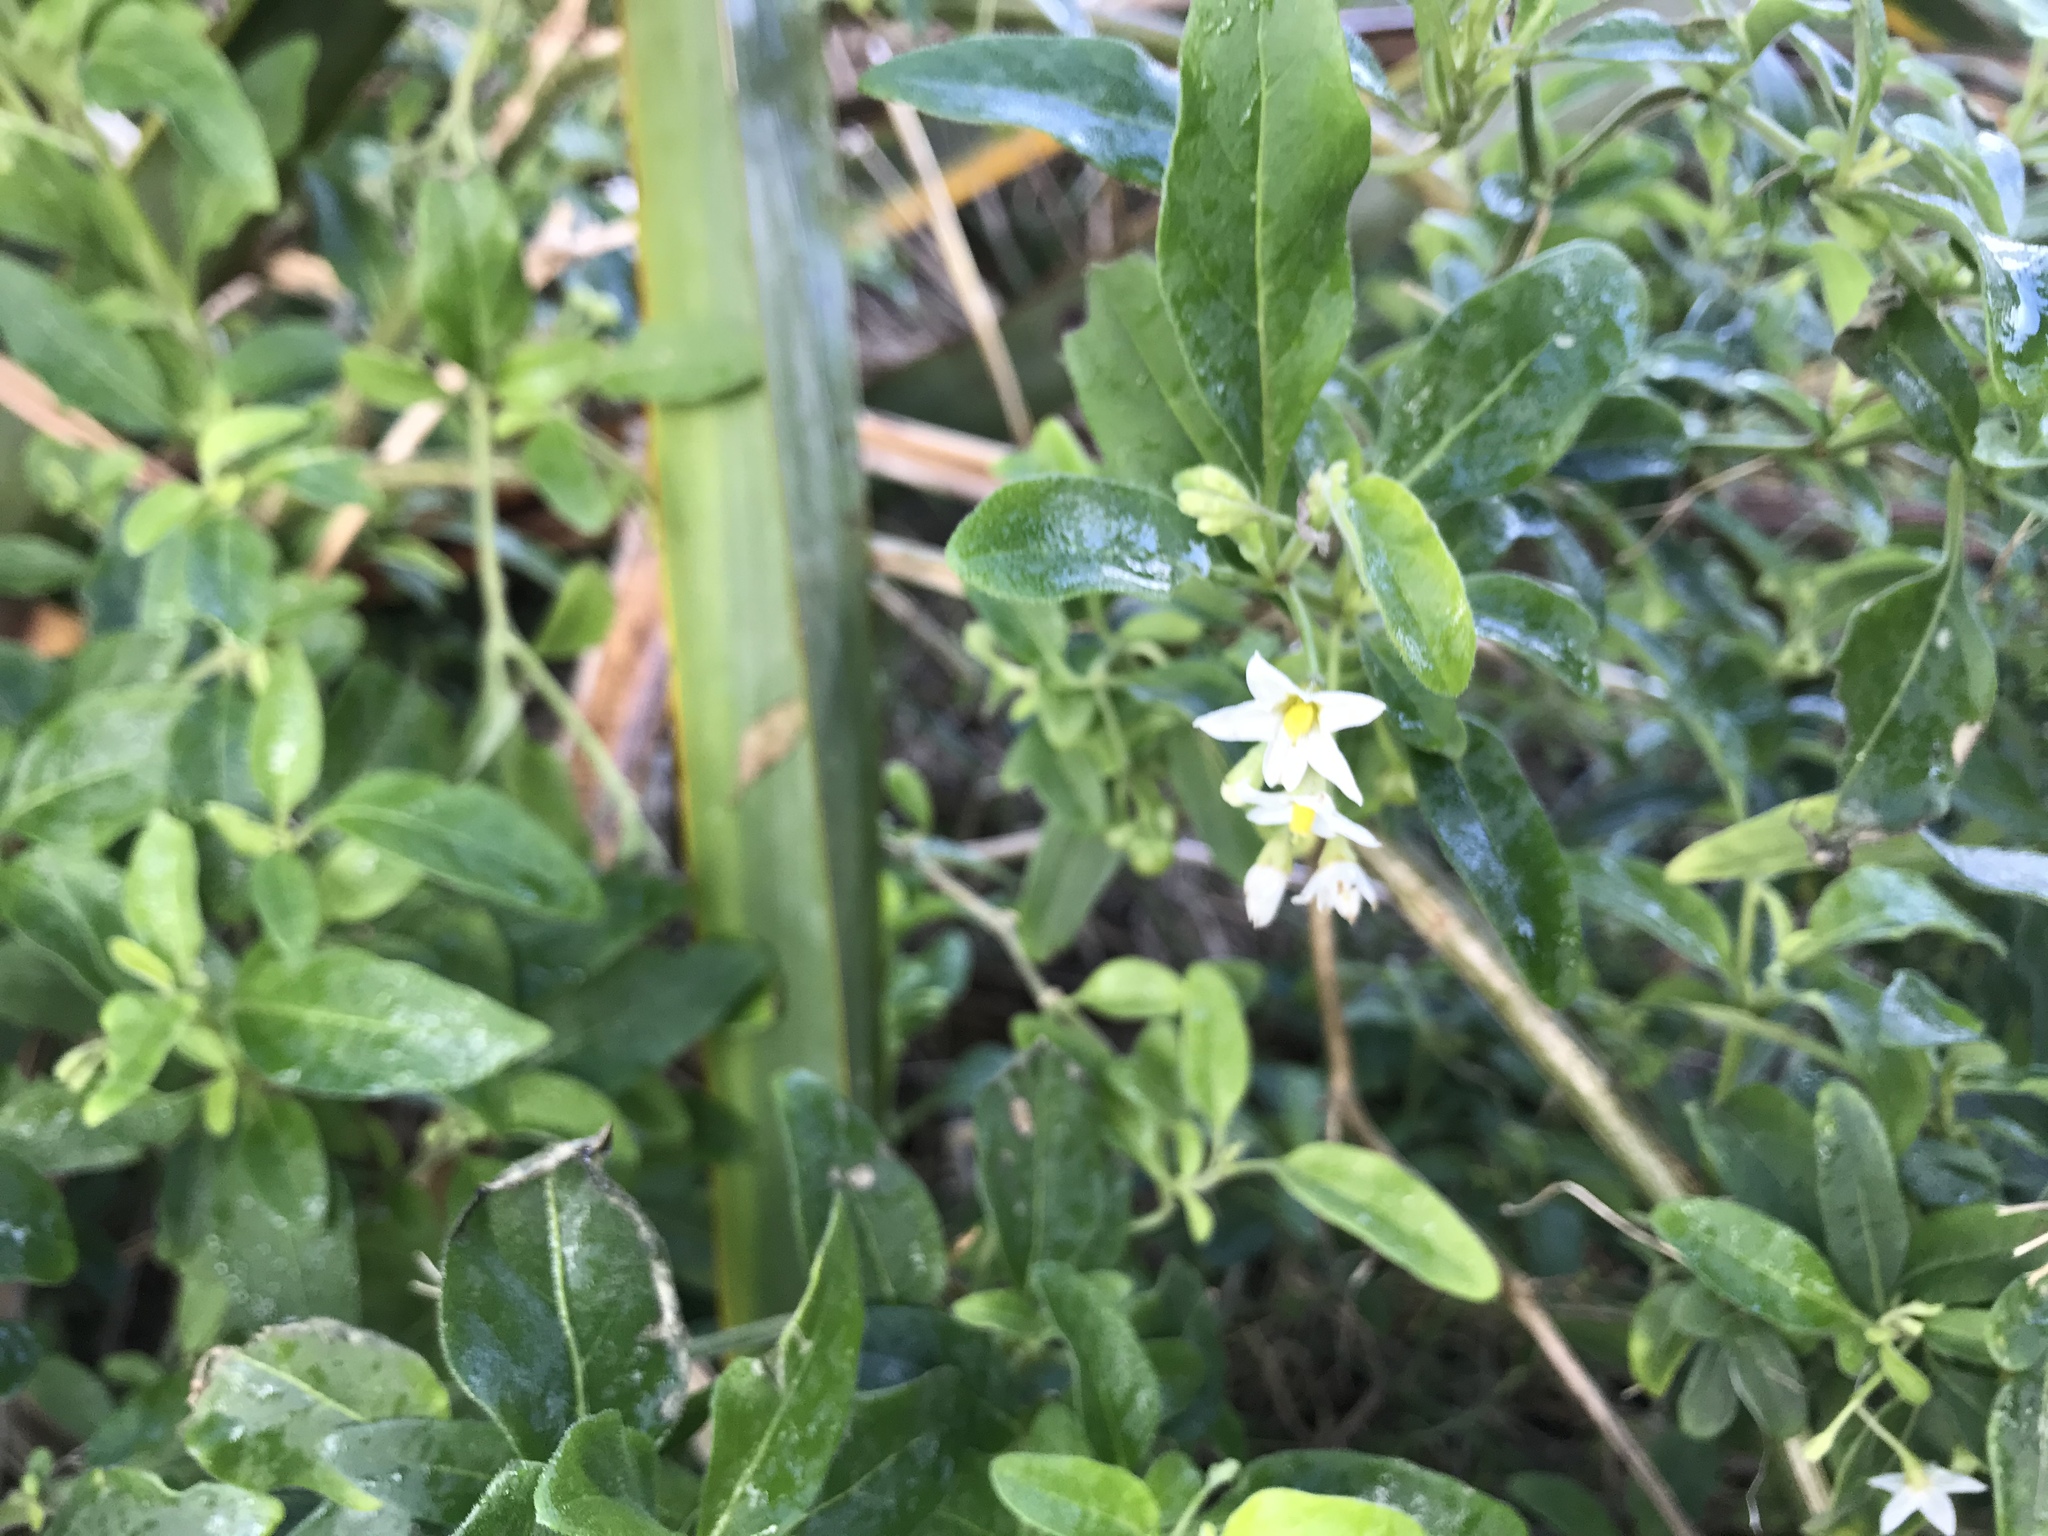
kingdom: Plantae
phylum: Tracheophyta
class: Magnoliopsida
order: Solanales
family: Solanaceae
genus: Solanum
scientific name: Solanum chenopodioides
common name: Tall nightshade
